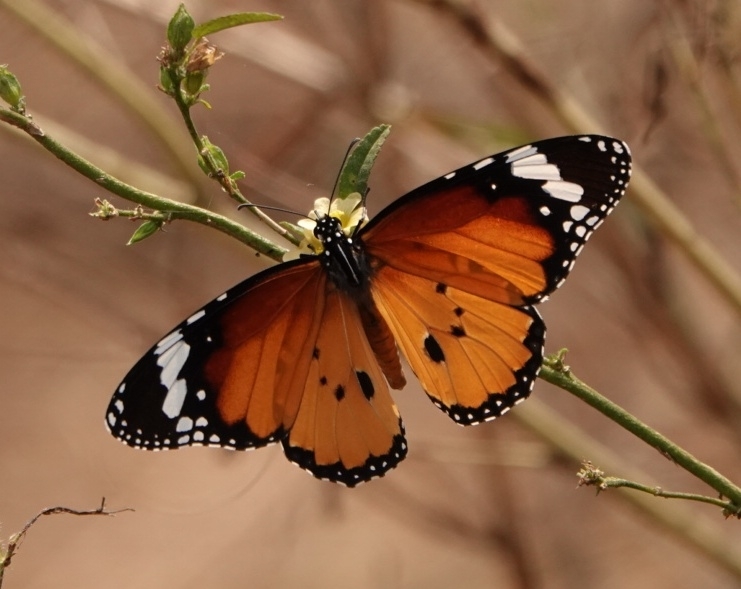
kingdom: Animalia
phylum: Arthropoda
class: Insecta
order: Lepidoptera
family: Nymphalidae
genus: Danaus
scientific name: Danaus chrysippus
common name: Plain tiger
